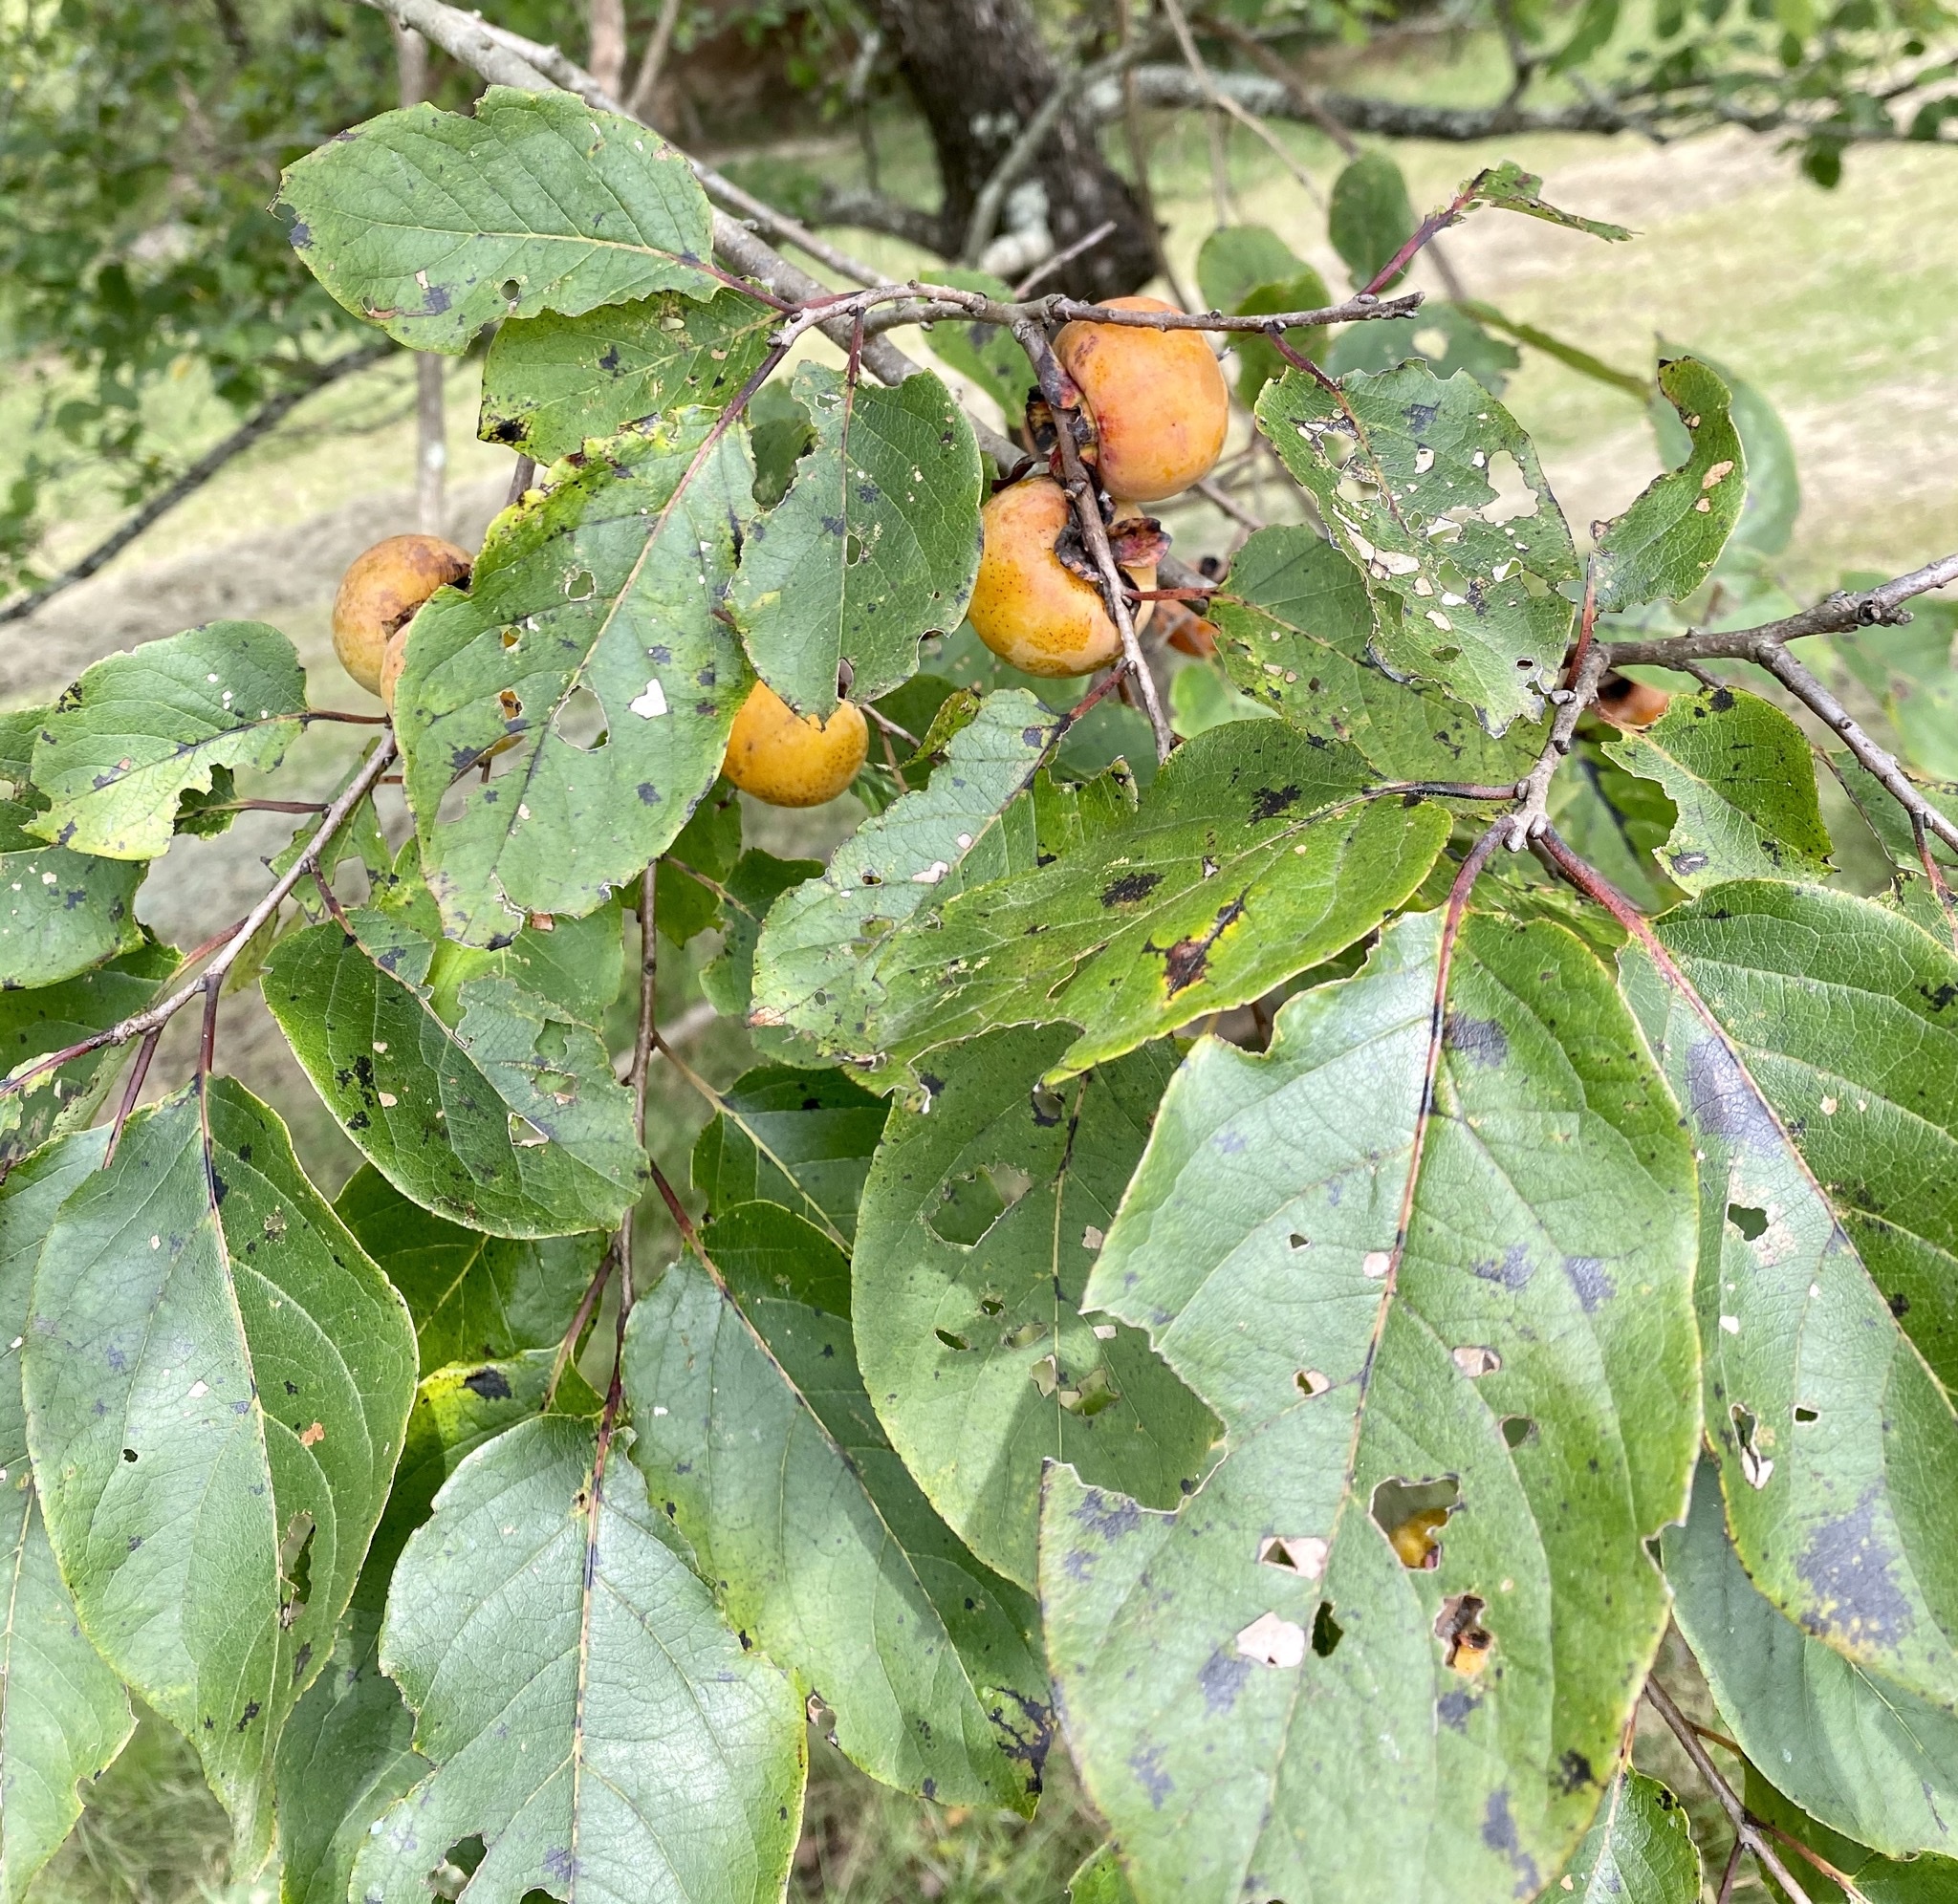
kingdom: Plantae
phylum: Tracheophyta
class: Magnoliopsida
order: Ericales
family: Ebenaceae
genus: Diospyros
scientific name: Diospyros virginiana
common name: Persimmon
